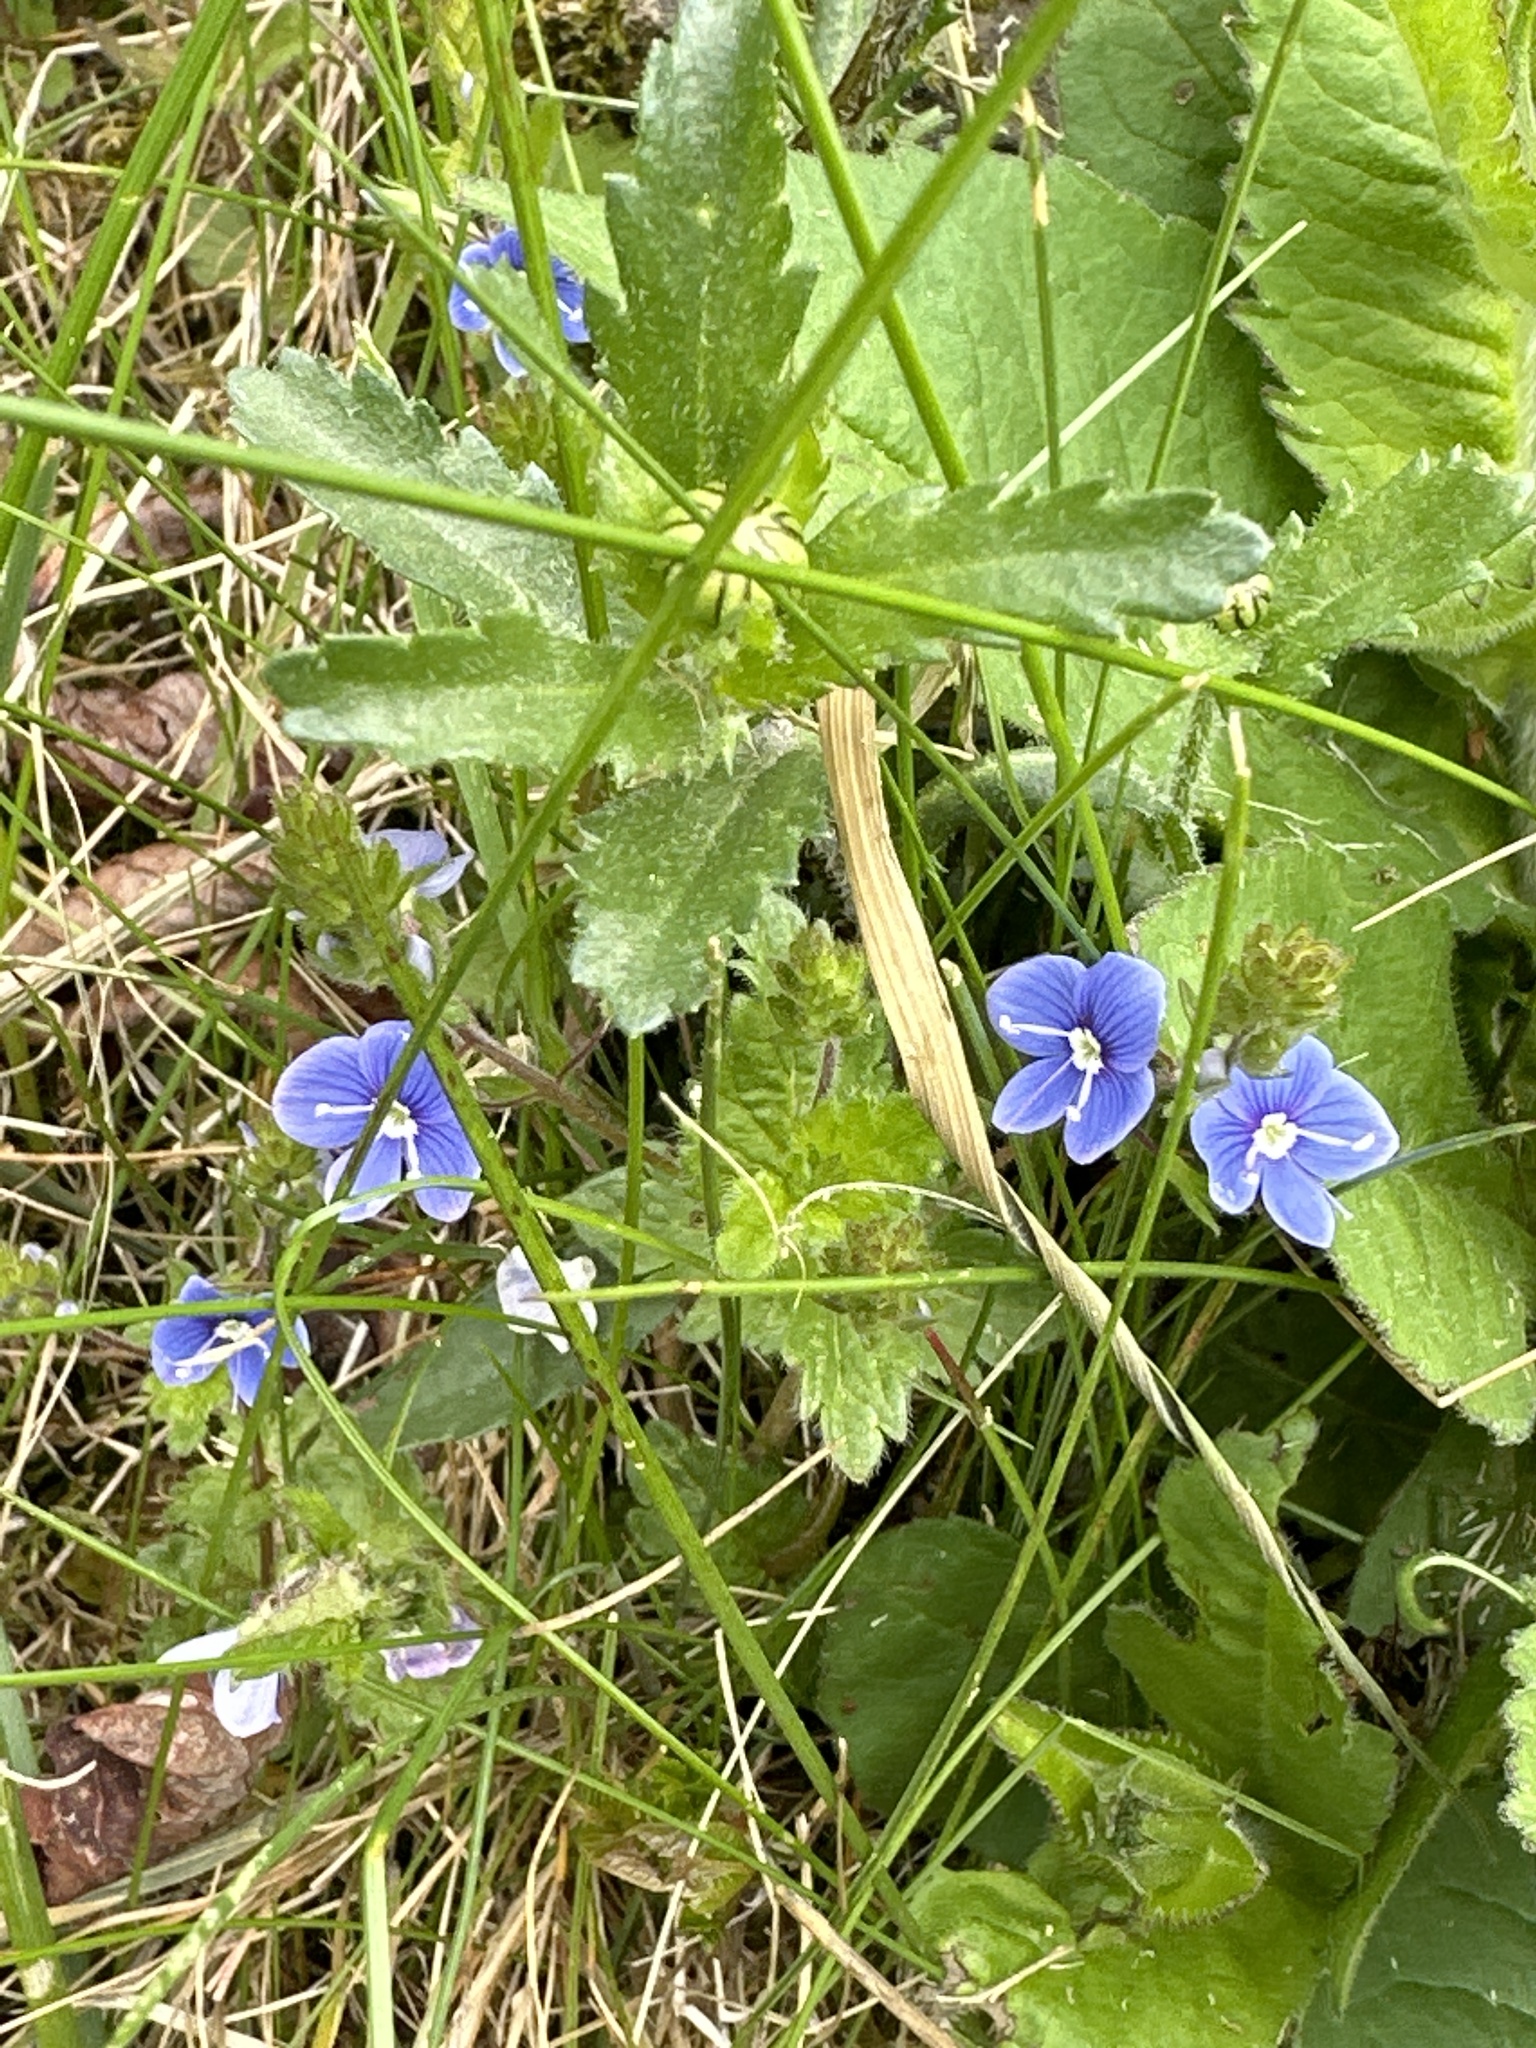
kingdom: Plantae
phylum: Tracheophyta
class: Magnoliopsida
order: Lamiales
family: Plantaginaceae
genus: Veronica
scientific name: Veronica chamaedrys
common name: Germander speedwell
